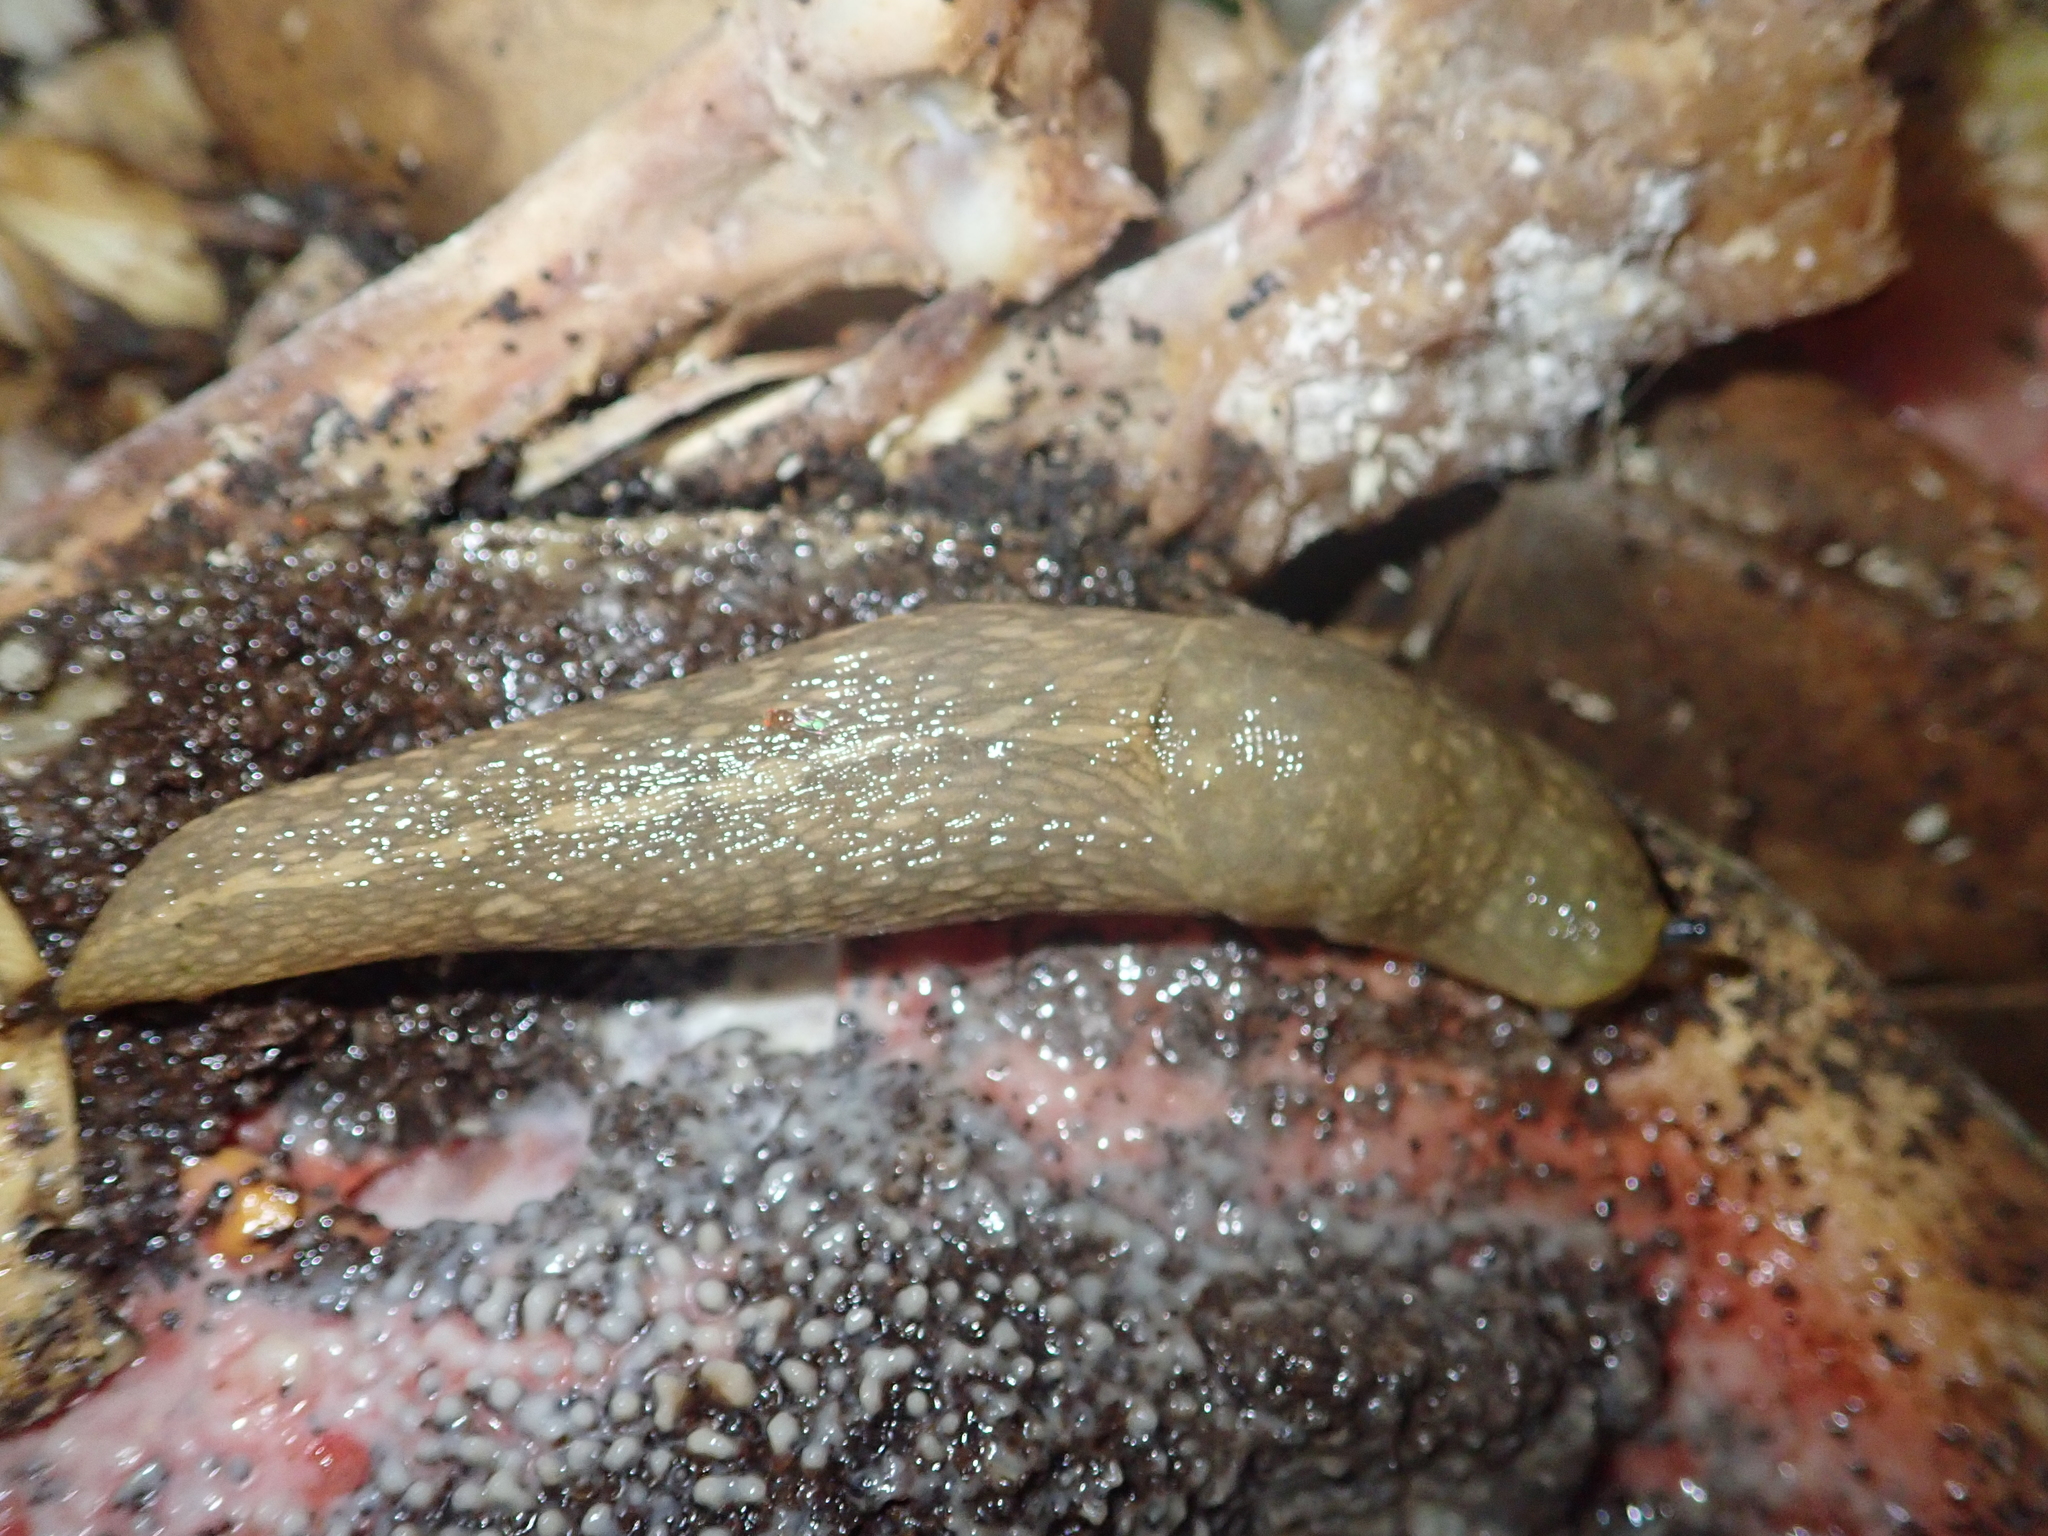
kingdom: Animalia
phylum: Mollusca
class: Gastropoda
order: Stylommatophora
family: Limacidae
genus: Limacus
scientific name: Limacus flavus
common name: Yellow gardenslug
